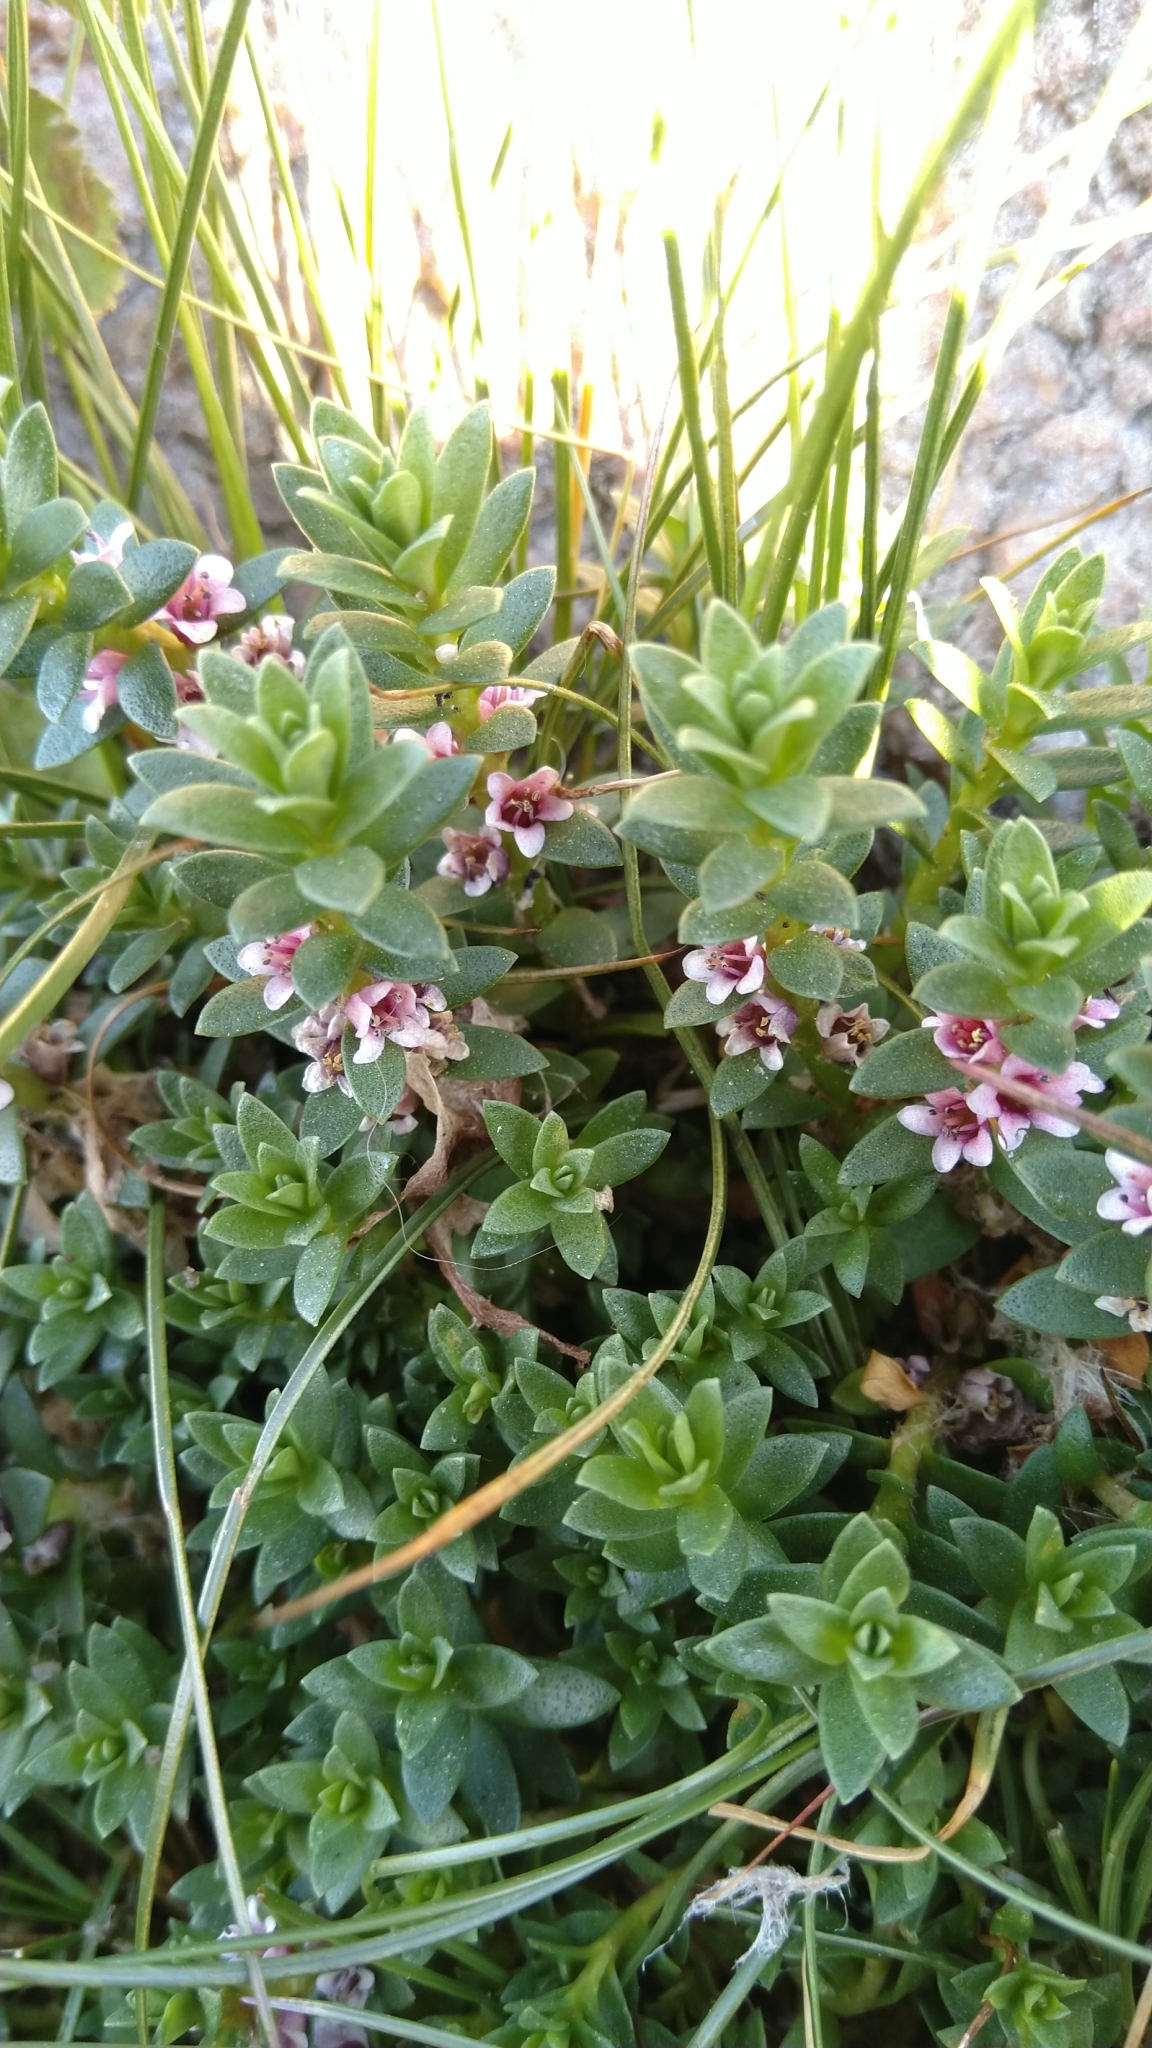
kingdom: Plantae
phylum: Tracheophyta
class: Magnoliopsida
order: Ericales
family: Primulaceae
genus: Lysimachia
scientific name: Lysimachia maritima
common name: Sea milkwort
